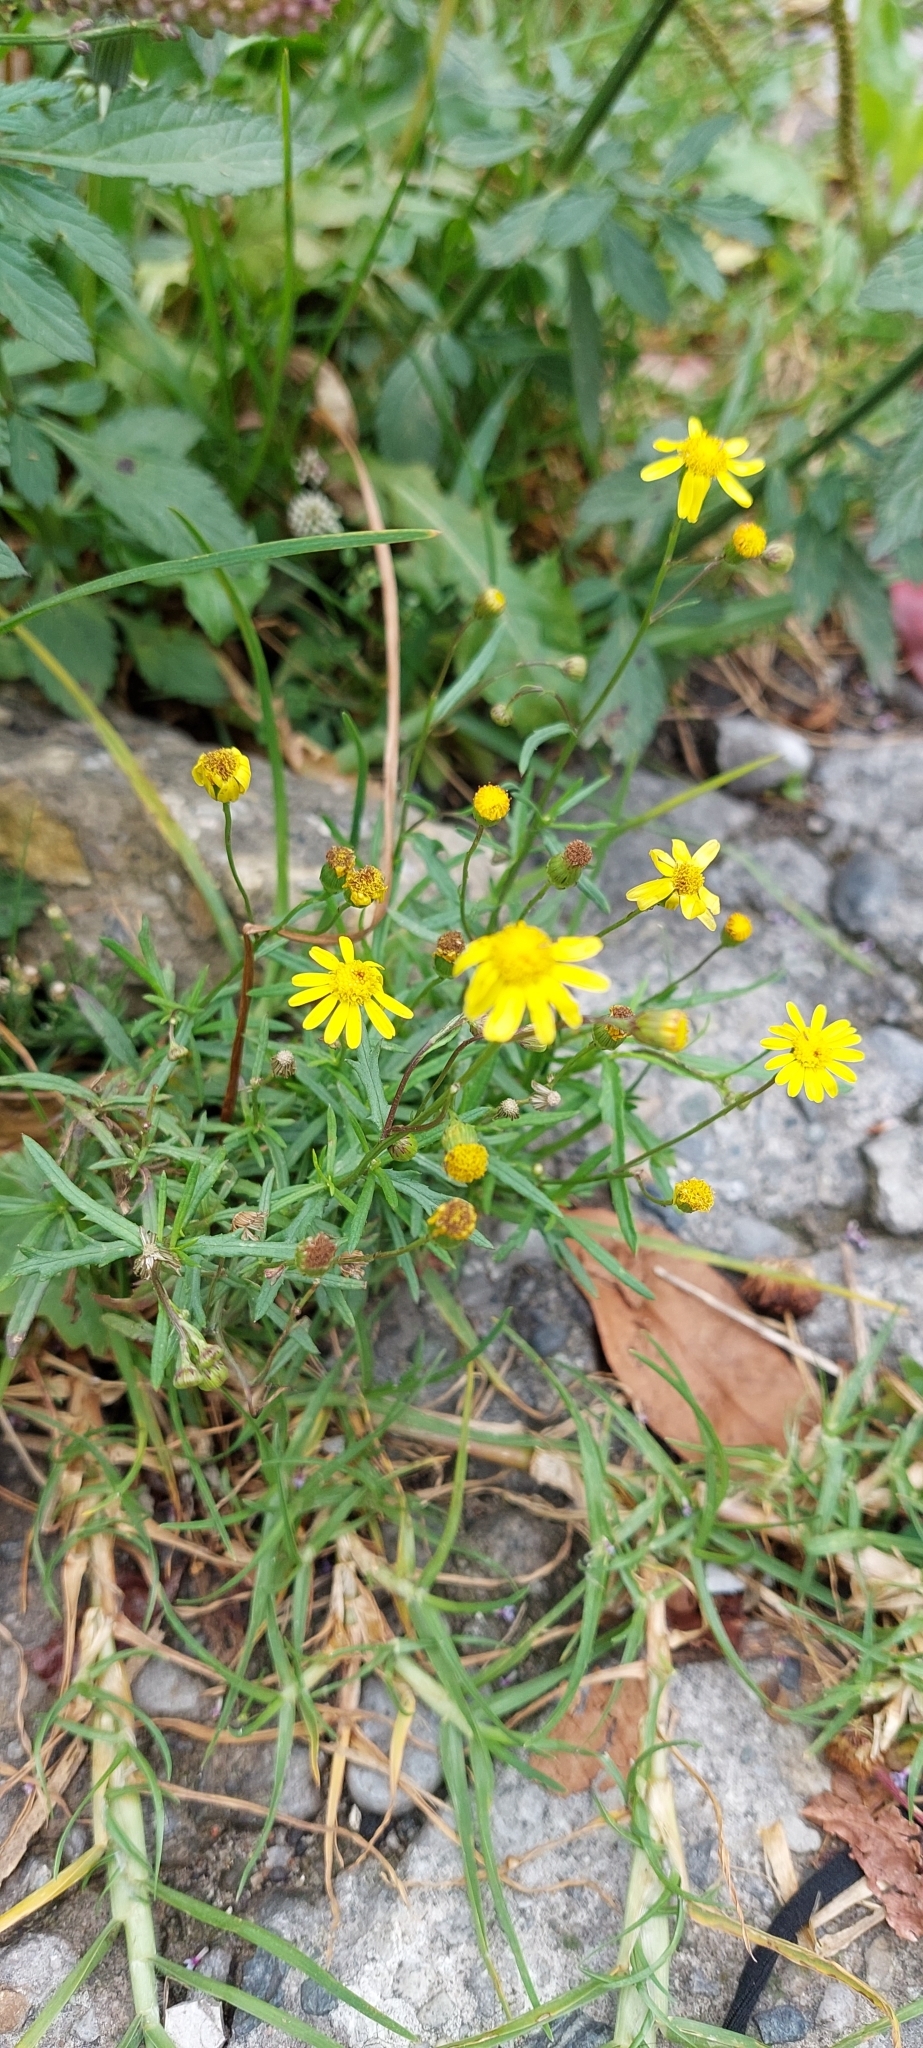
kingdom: Plantae
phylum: Tracheophyta
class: Magnoliopsida
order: Asterales
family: Asteraceae
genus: Senecio
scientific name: Senecio madagascariensis
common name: Madagascar ragwort
